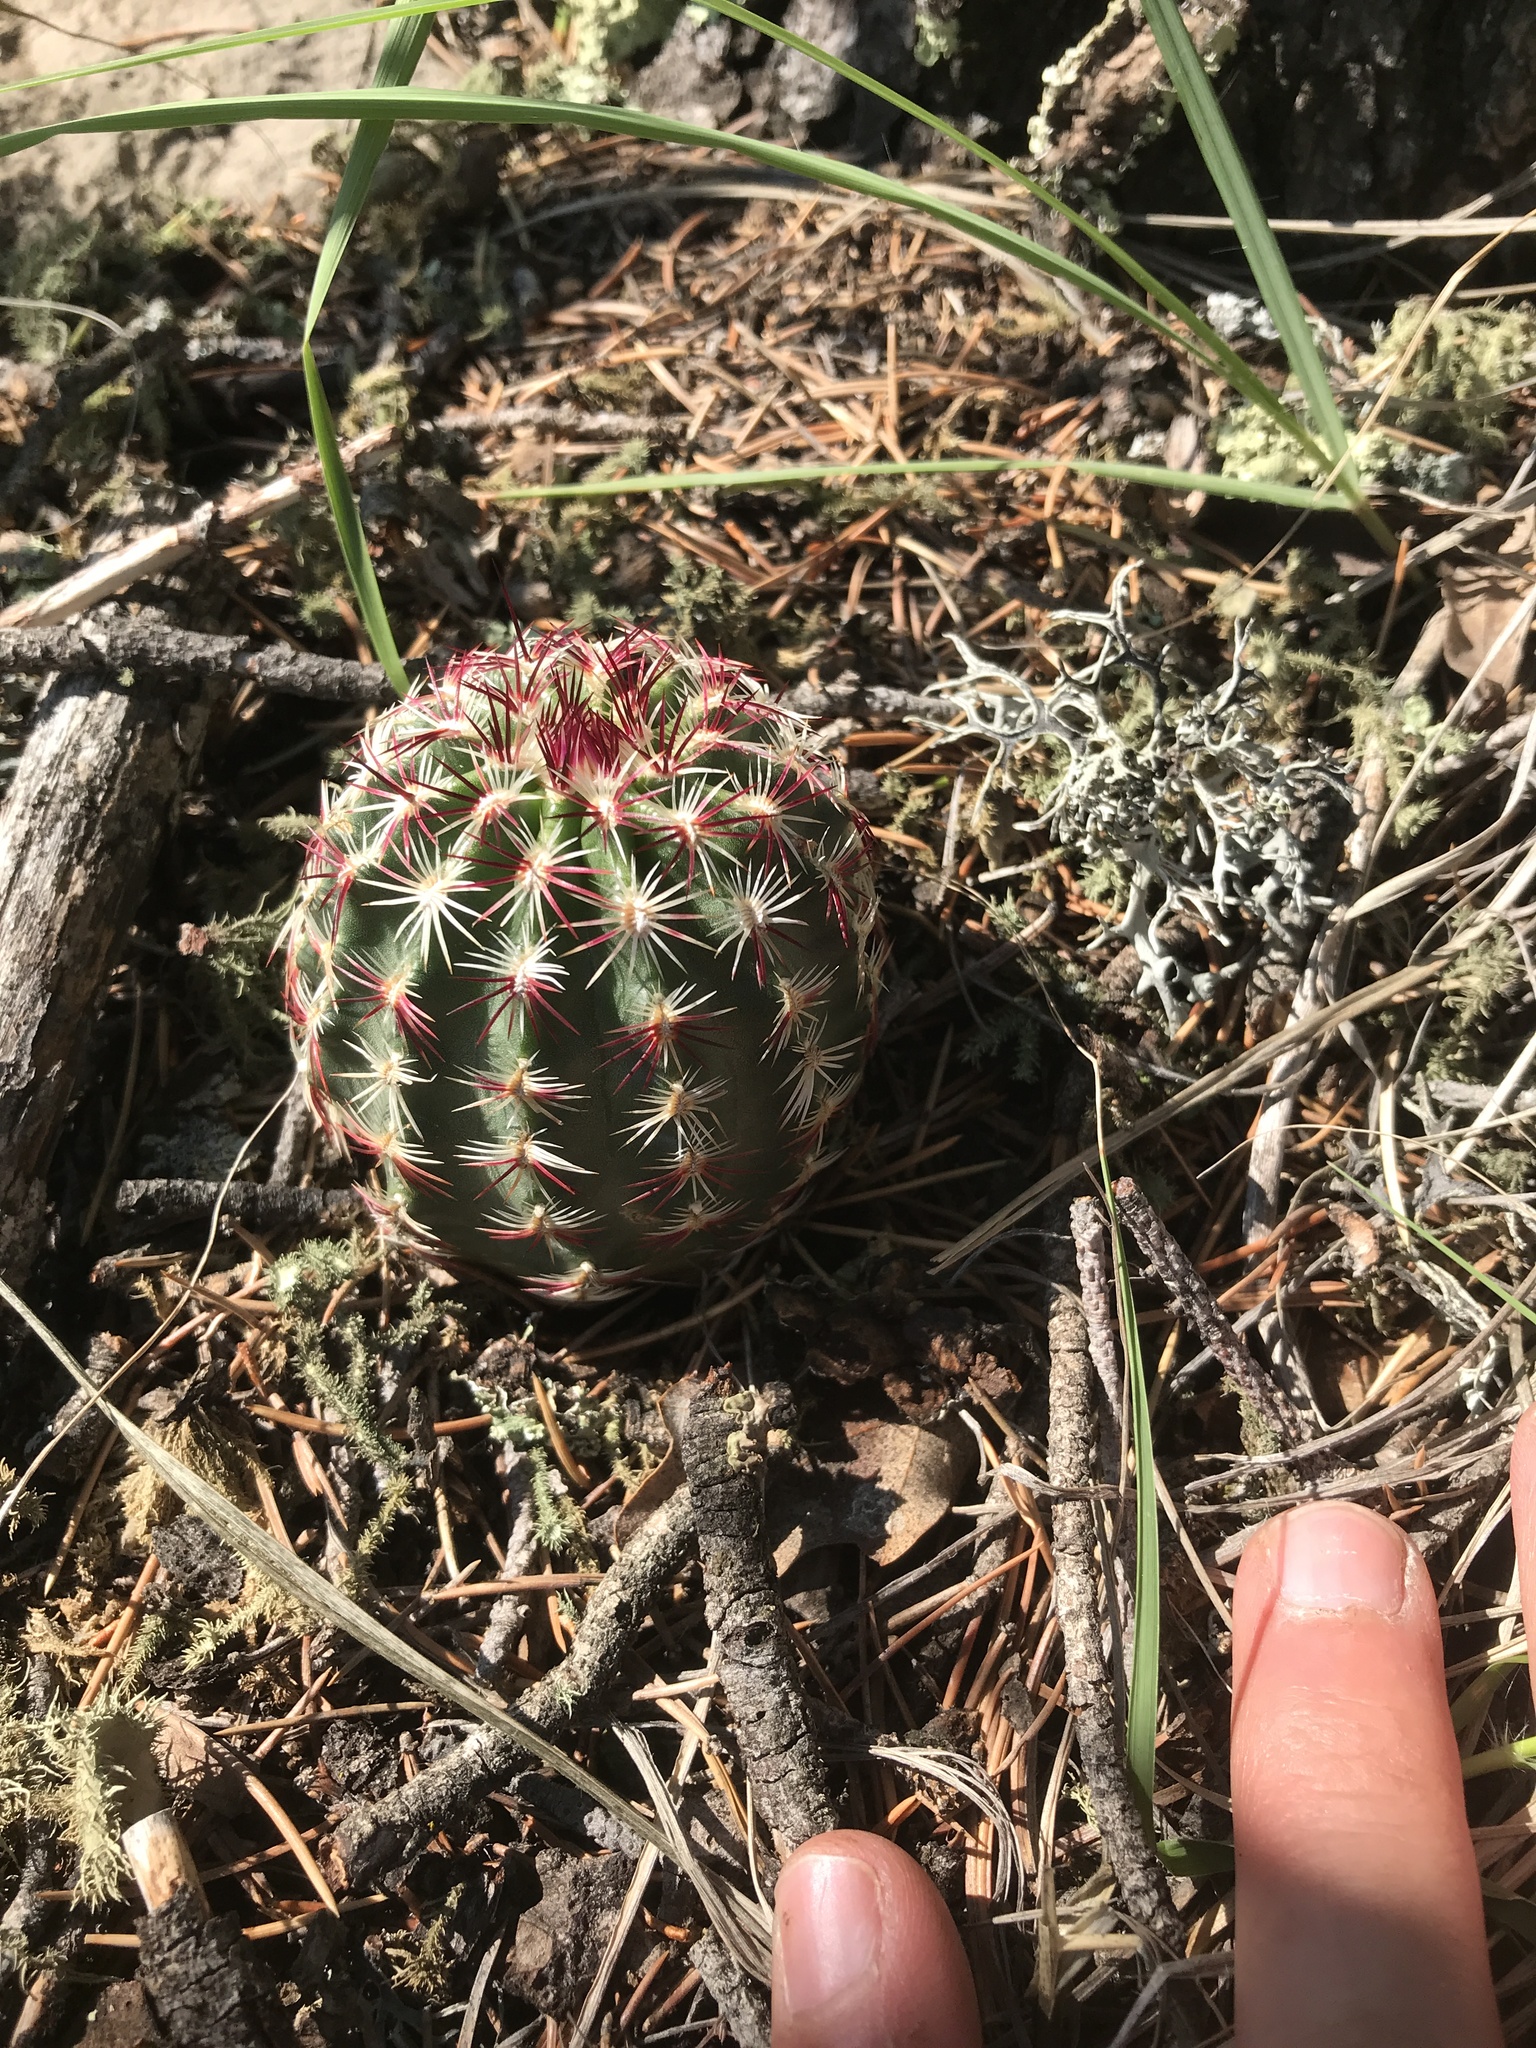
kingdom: Plantae
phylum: Tracheophyta
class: Magnoliopsida
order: Caryophyllales
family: Cactaceae
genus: Echinocereus
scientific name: Echinocereus viridiflorus
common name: Nylon hedgehog cactus
